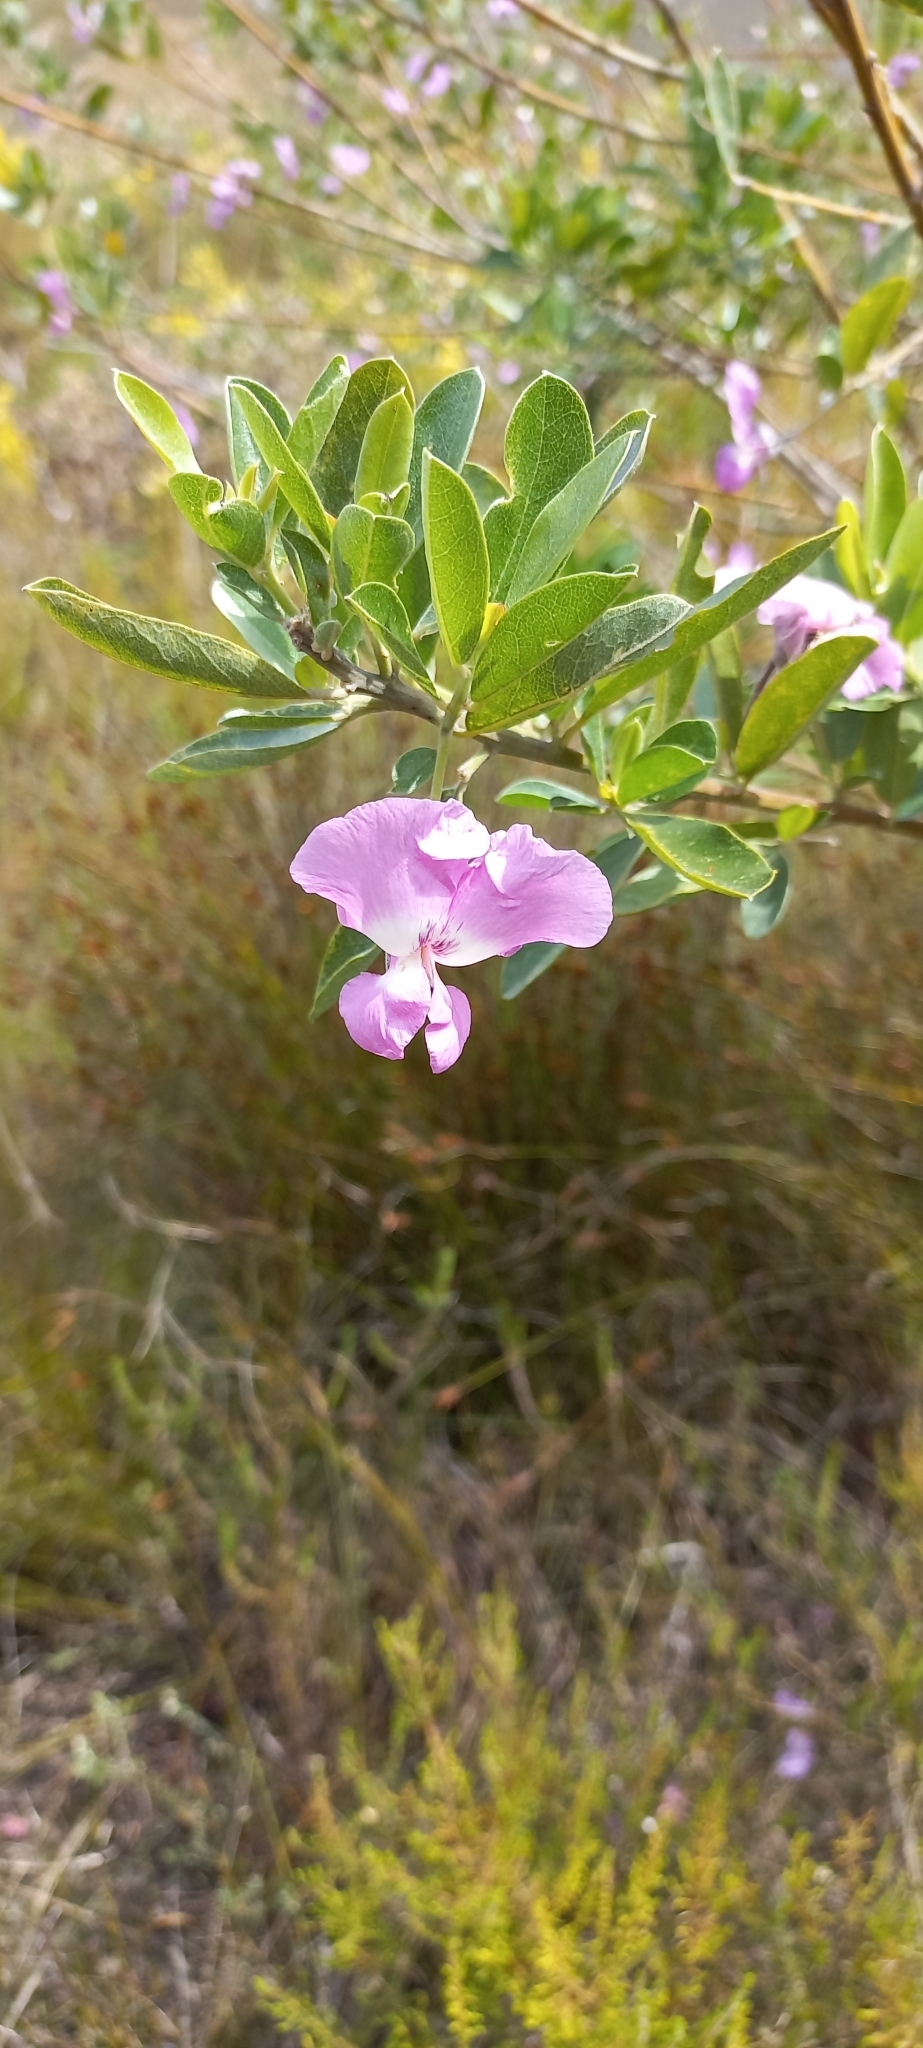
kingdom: Plantae
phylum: Tracheophyta
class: Magnoliopsida
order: Fabales
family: Fabaceae
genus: Podalyria
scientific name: Podalyria calyptrata
